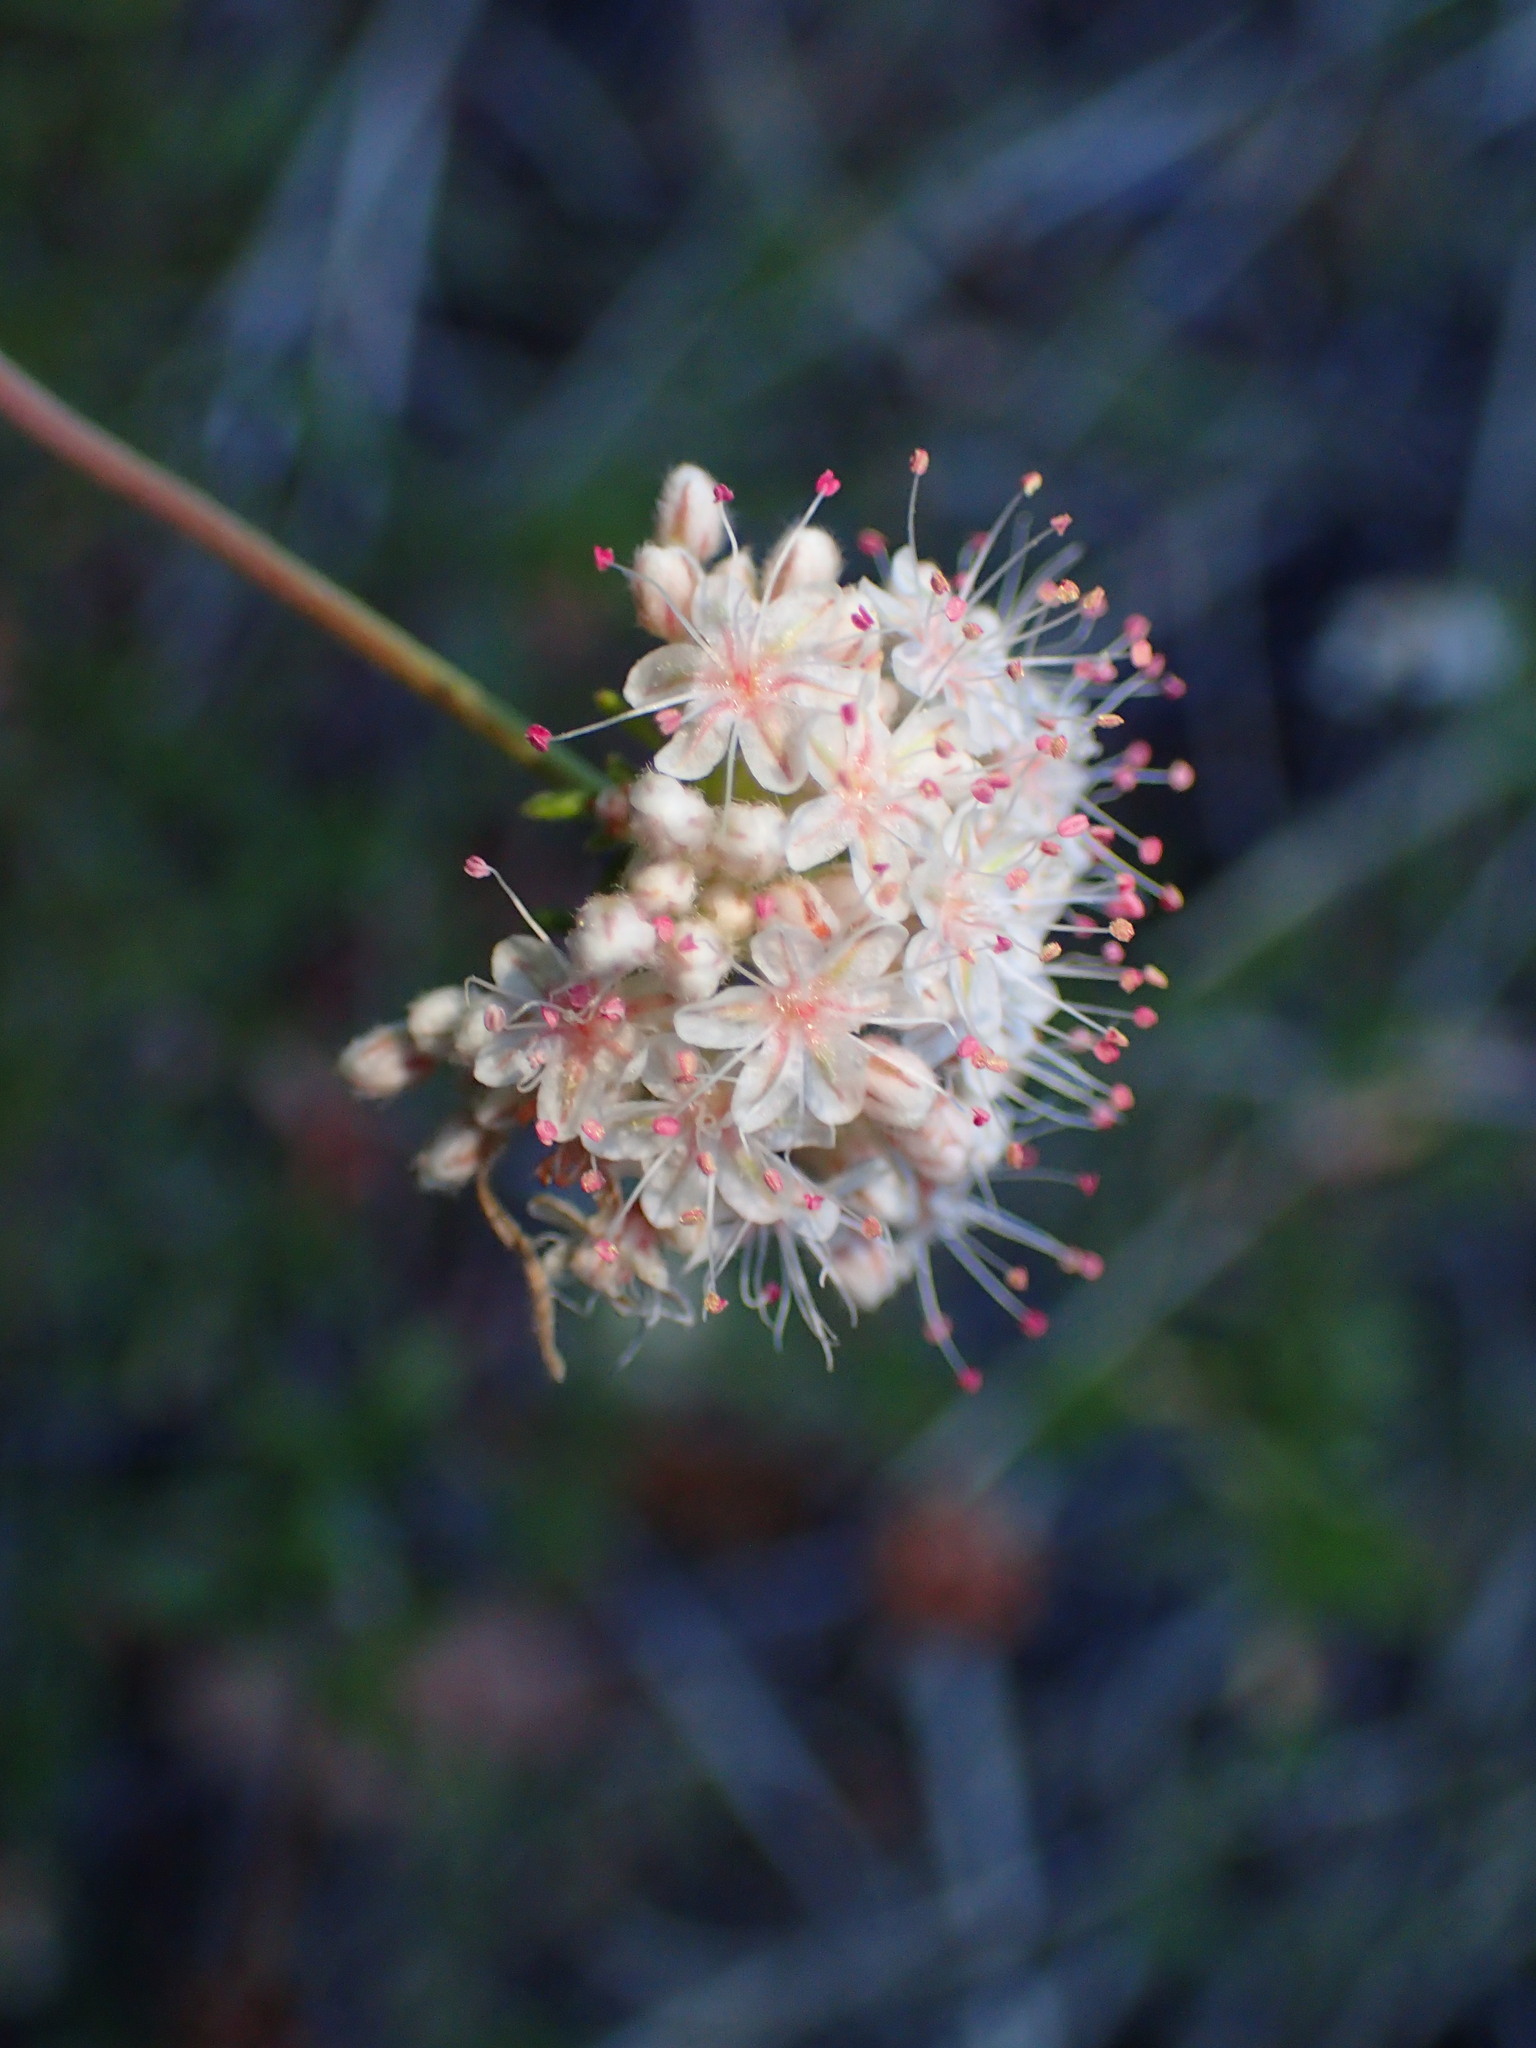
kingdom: Plantae
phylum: Tracheophyta
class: Magnoliopsida
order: Caryophyllales
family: Polygonaceae
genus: Eriogonum
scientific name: Eriogonum fasciculatum
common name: California wild buckwheat
